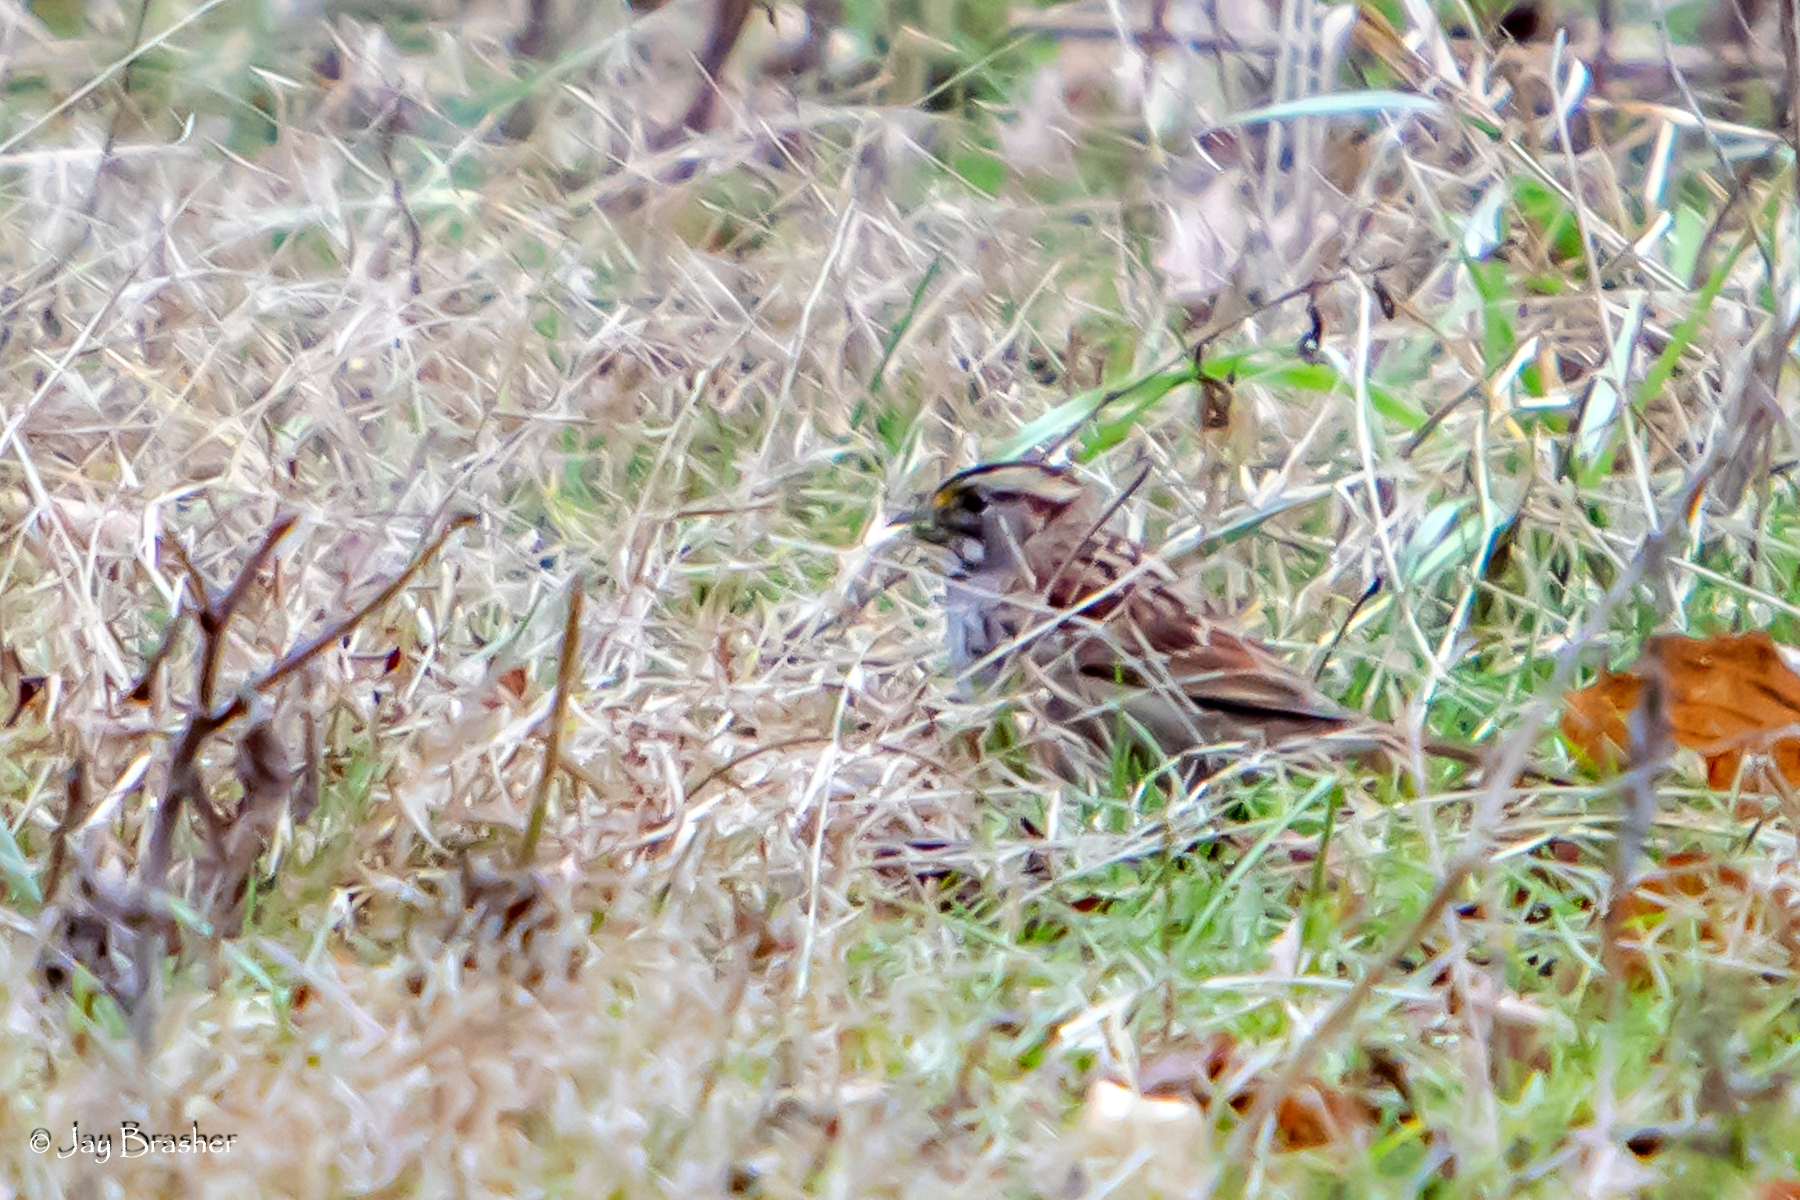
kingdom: Animalia
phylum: Chordata
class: Aves
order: Passeriformes
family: Passerellidae
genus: Zonotrichia
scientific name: Zonotrichia albicollis
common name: White-throated sparrow
